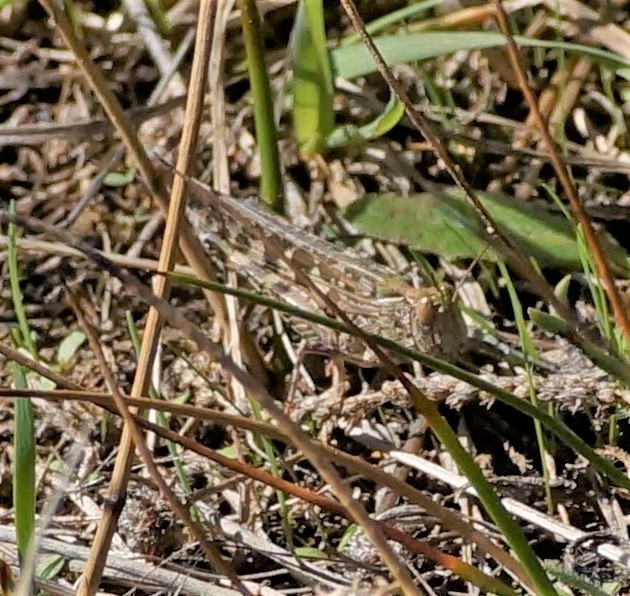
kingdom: Animalia
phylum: Arthropoda
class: Insecta
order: Orthoptera
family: Acrididae
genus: Chortoicetes
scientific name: Chortoicetes terminifera
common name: Australian plague locust
